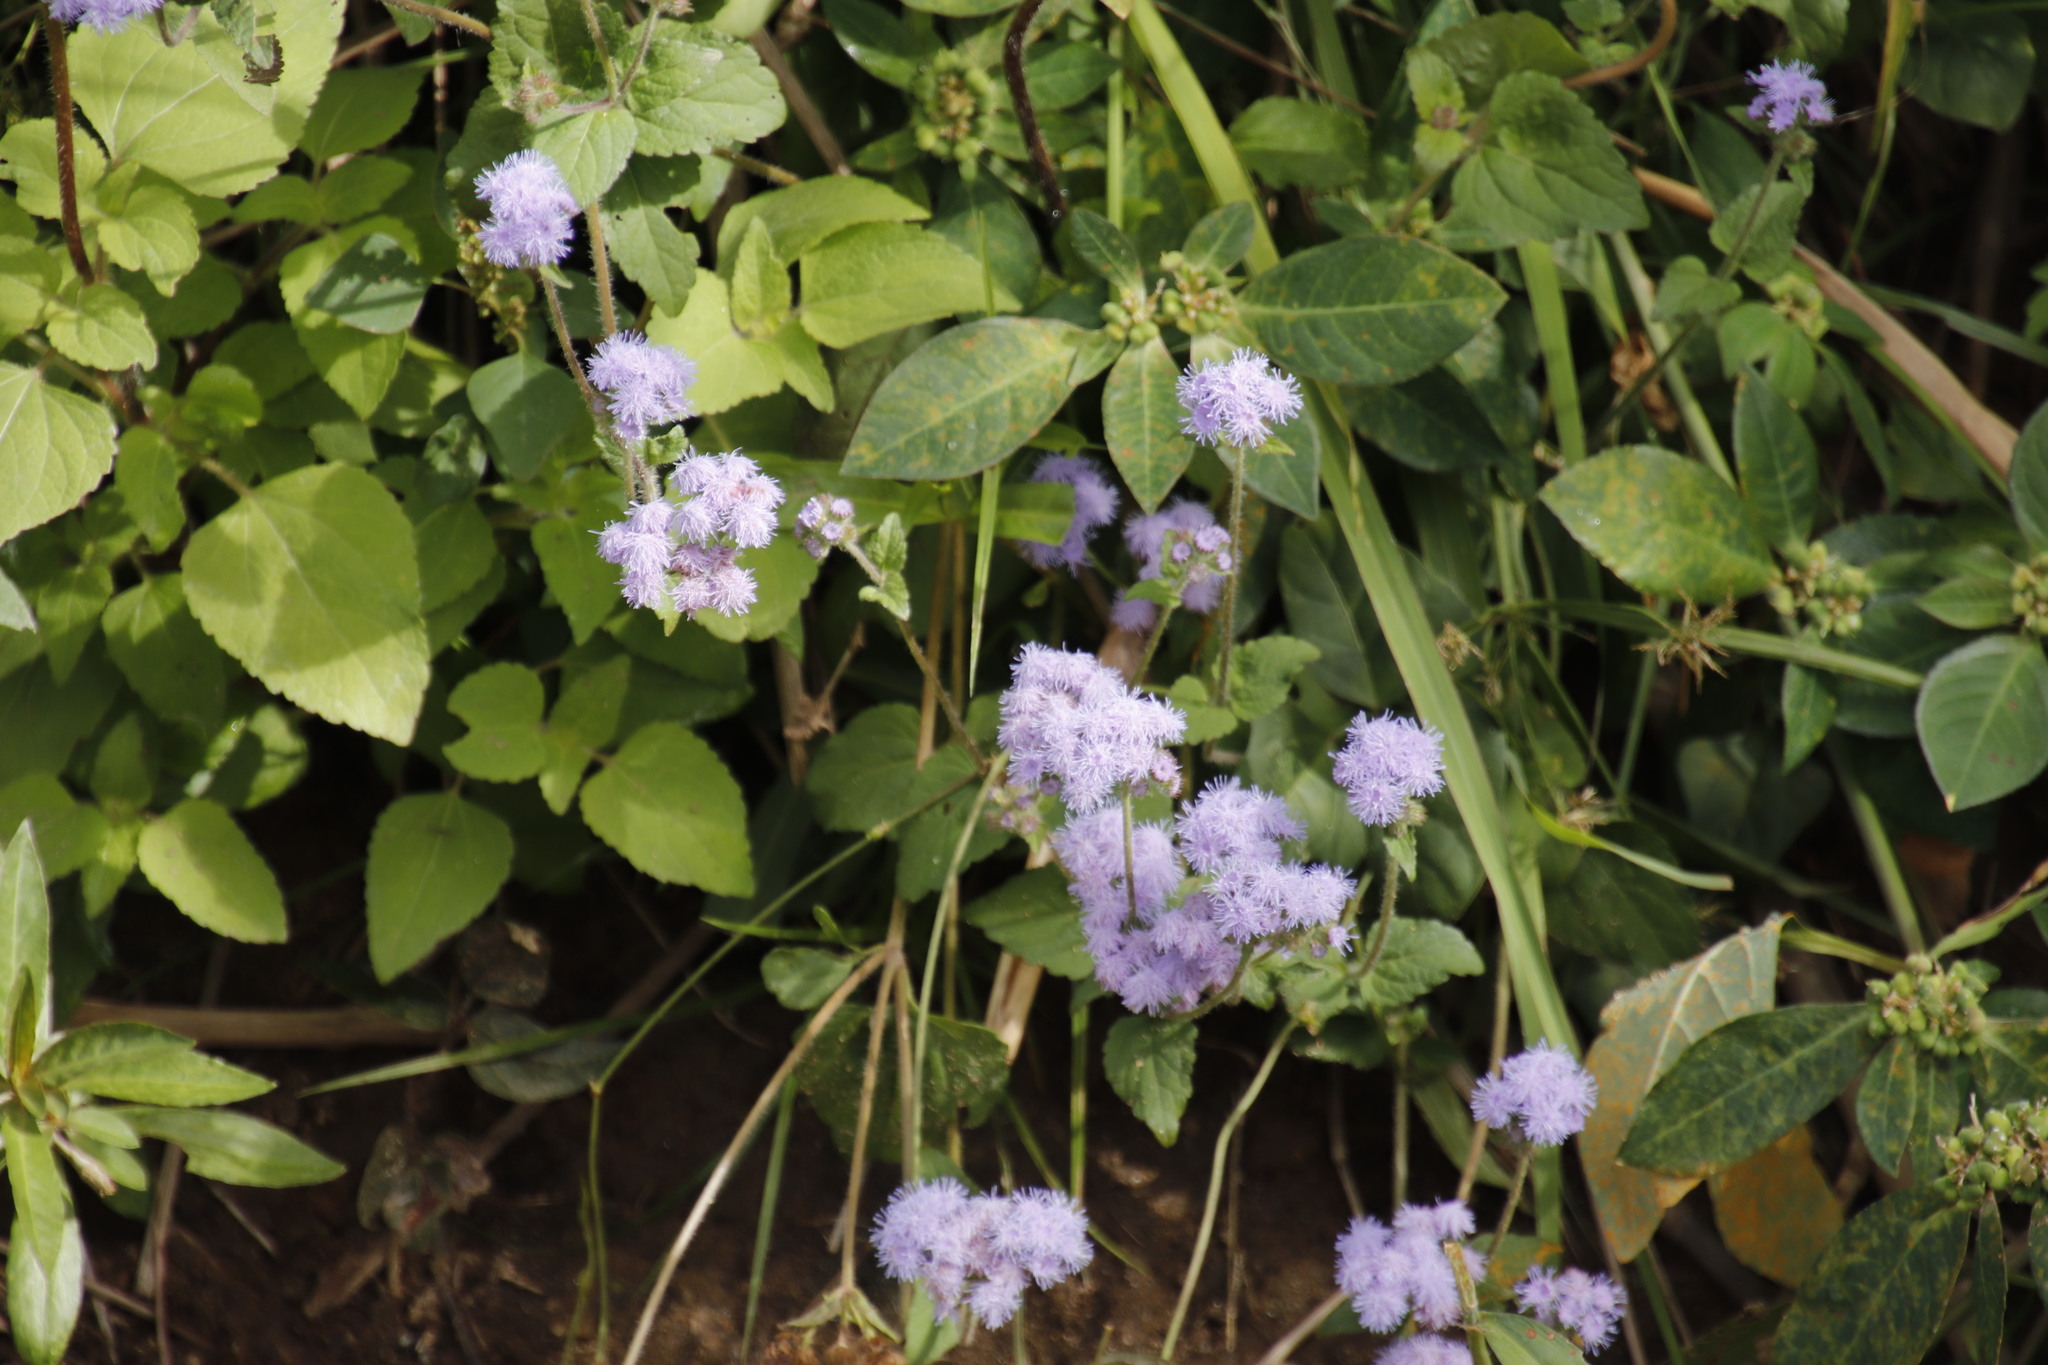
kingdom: Plantae
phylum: Tracheophyta
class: Magnoliopsida
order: Asterales
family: Asteraceae
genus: Ageratum
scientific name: Ageratum houstonianum
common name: Bluemink
